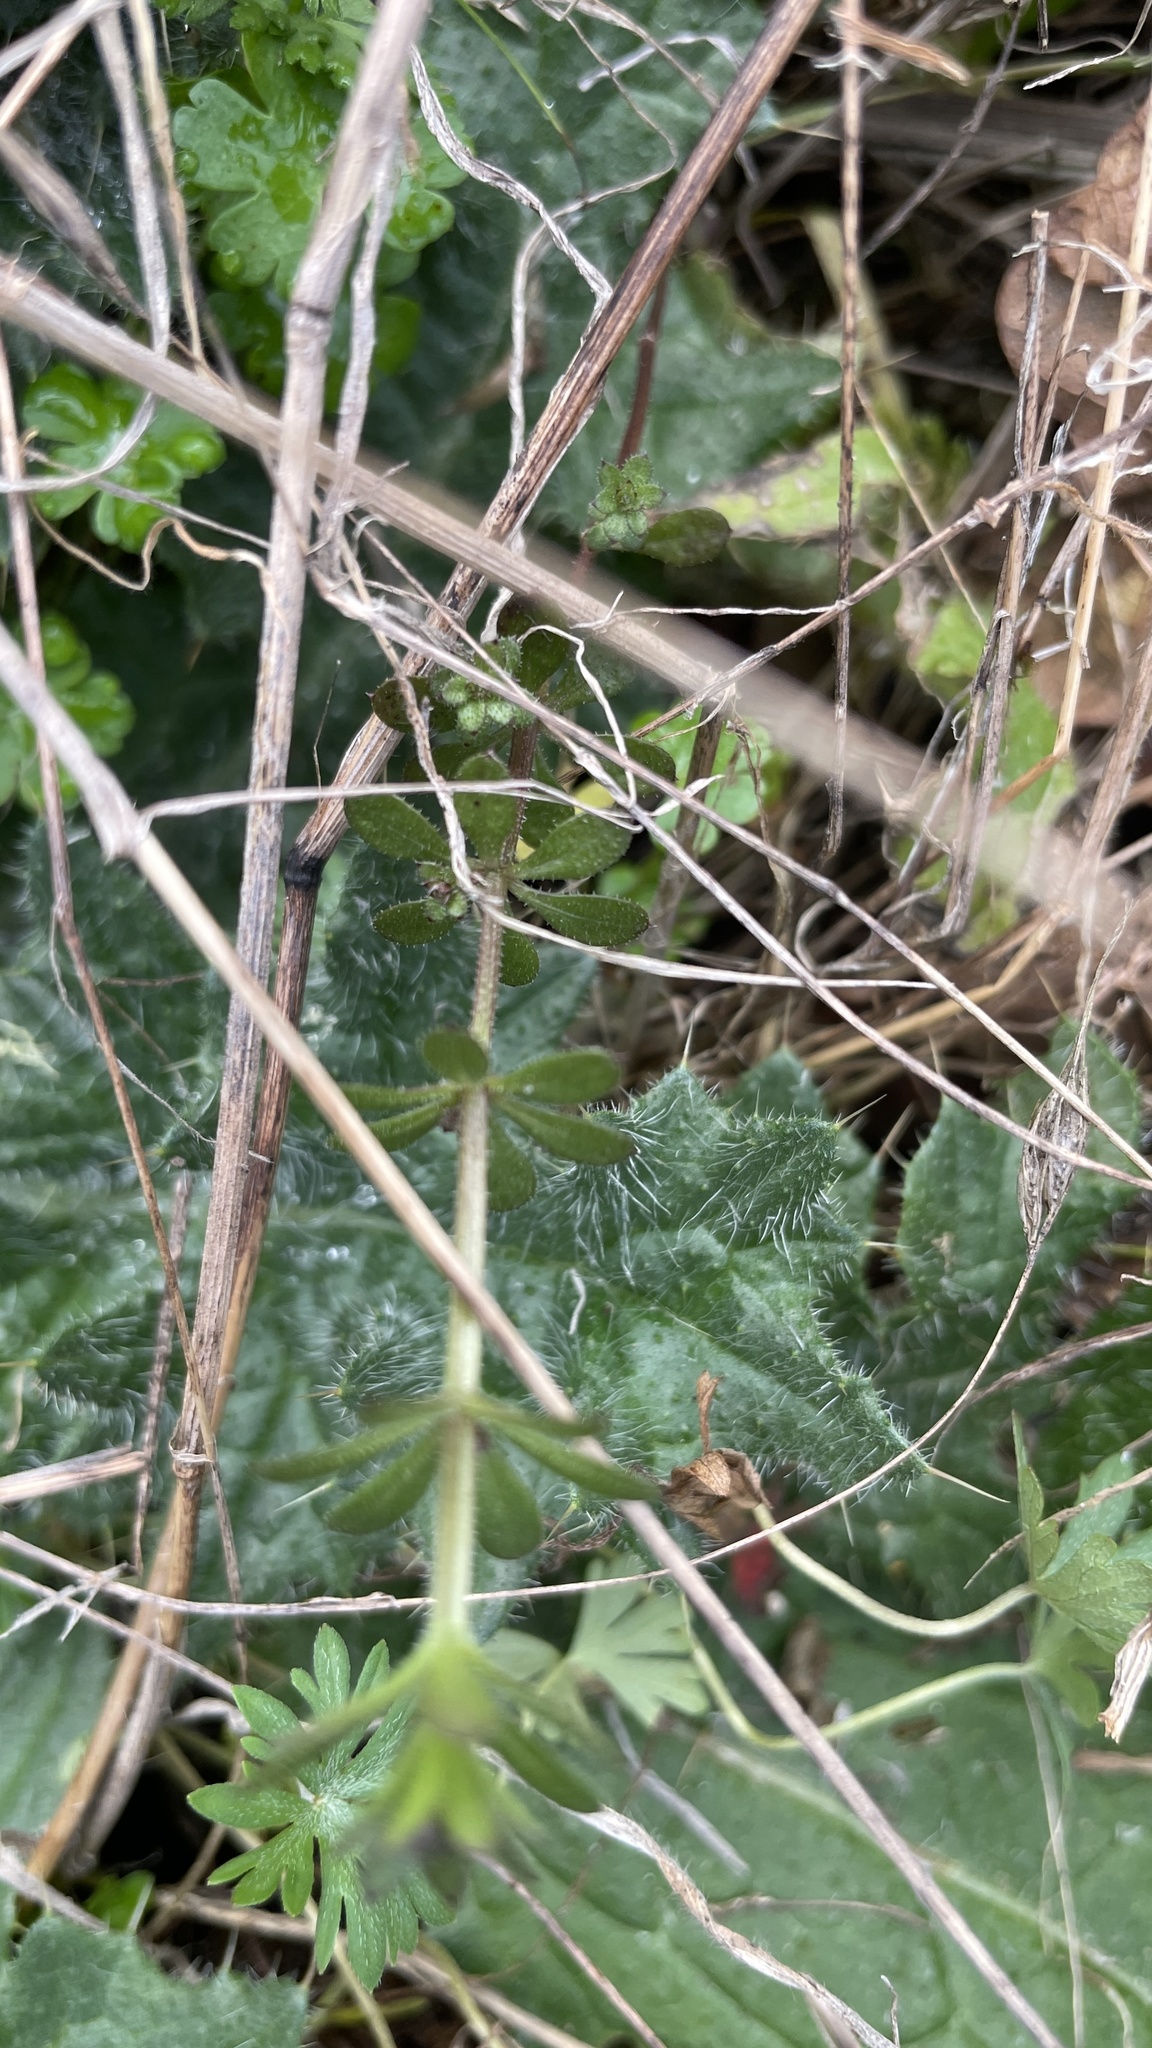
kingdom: Plantae
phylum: Tracheophyta
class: Magnoliopsida
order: Asterales
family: Asteraceae
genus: Cirsium
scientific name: Cirsium vulgare
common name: Bull thistle
